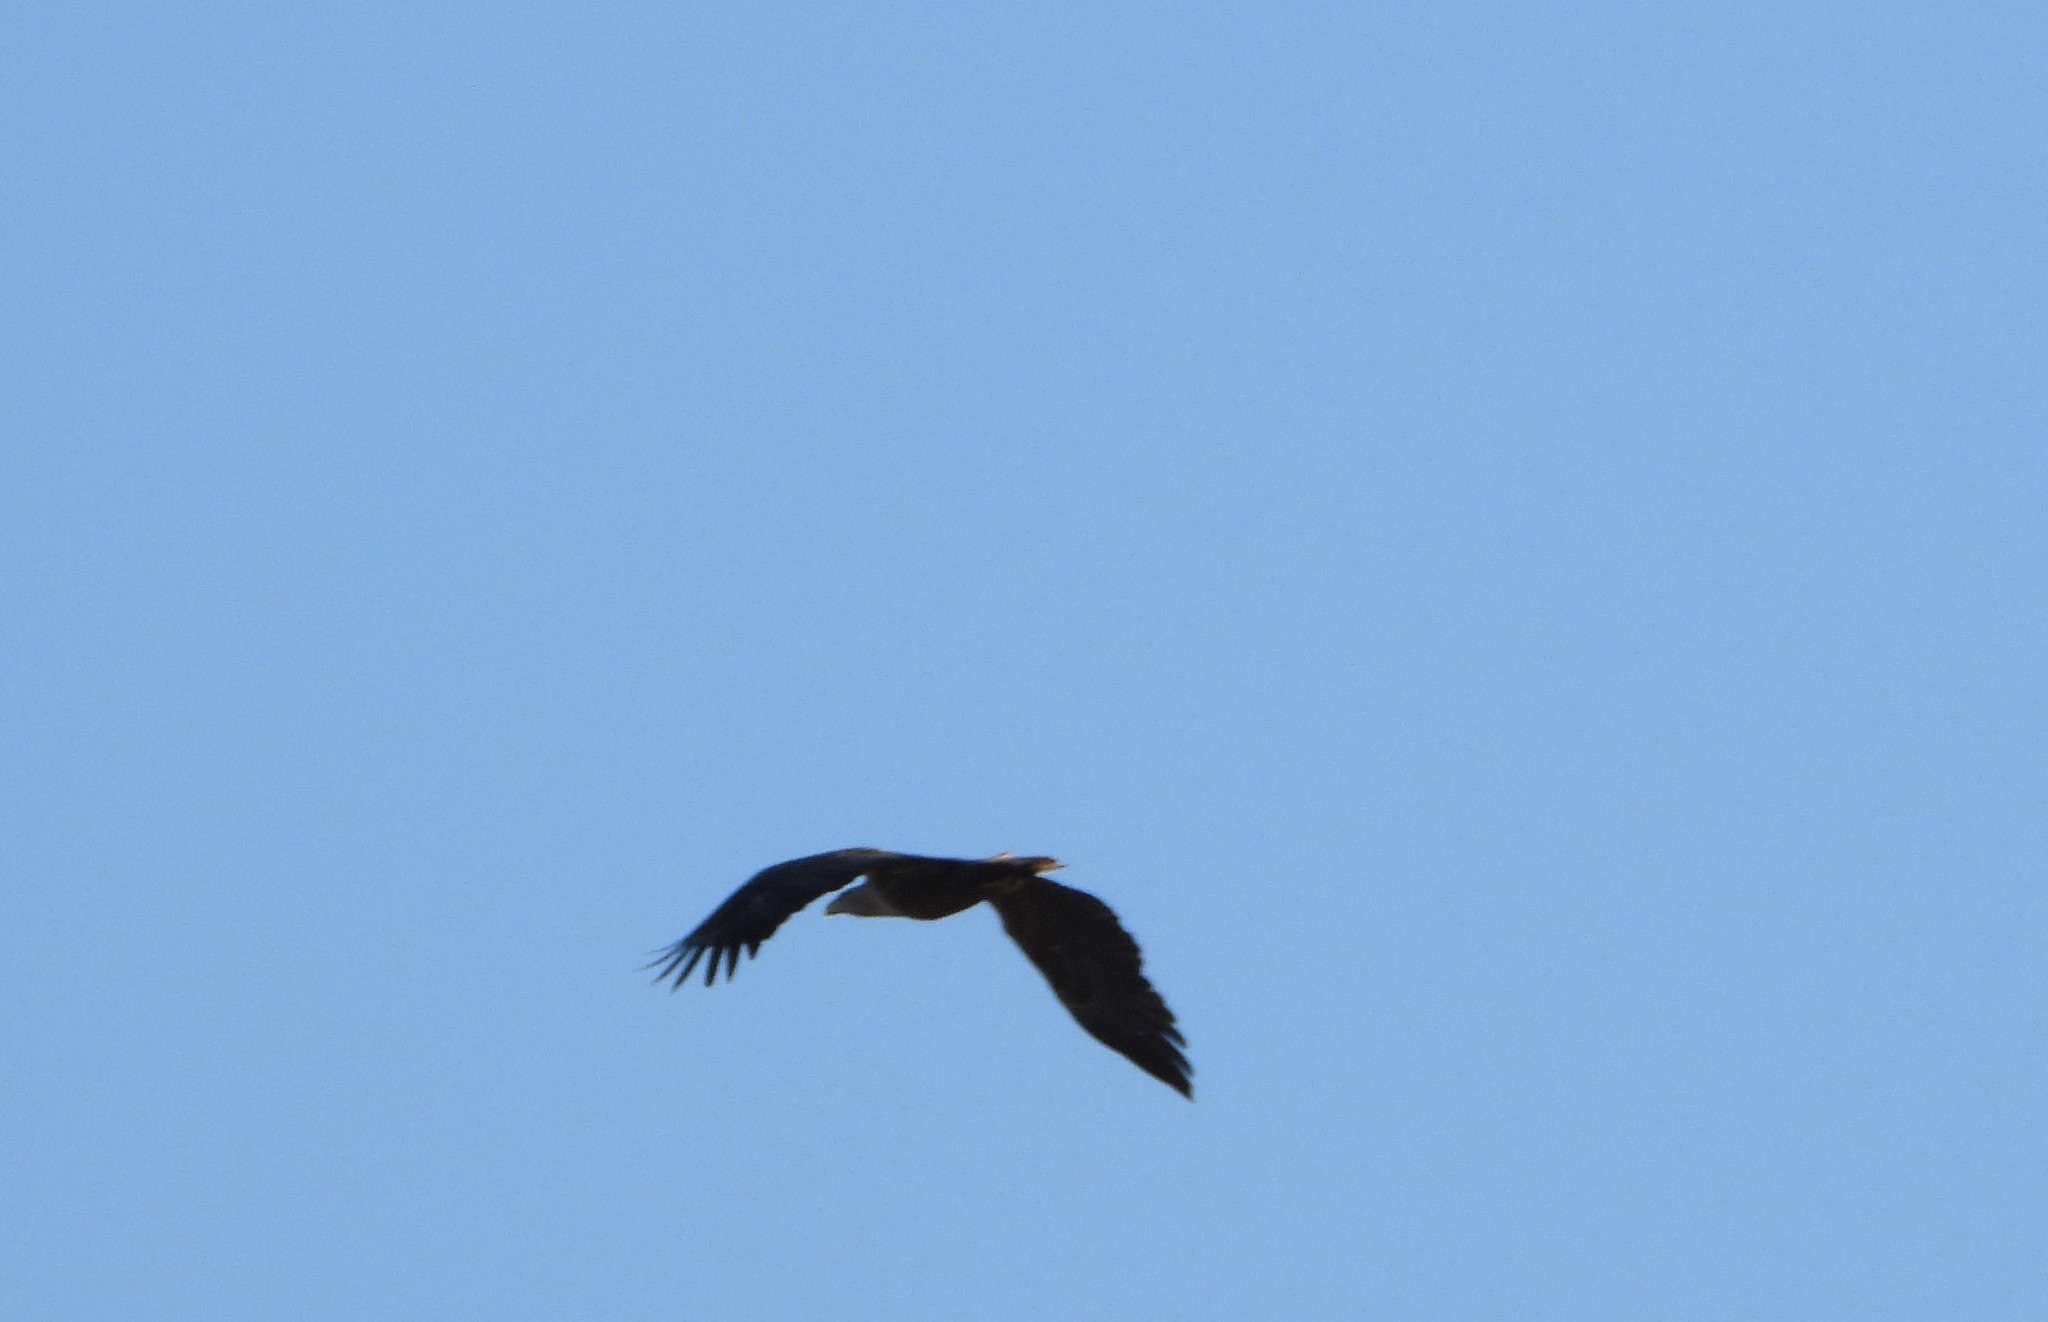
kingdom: Animalia
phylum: Chordata
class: Aves
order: Accipitriformes
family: Accipitridae
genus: Haliaeetus
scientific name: Haliaeetus albicilla
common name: White-tailed eagle
